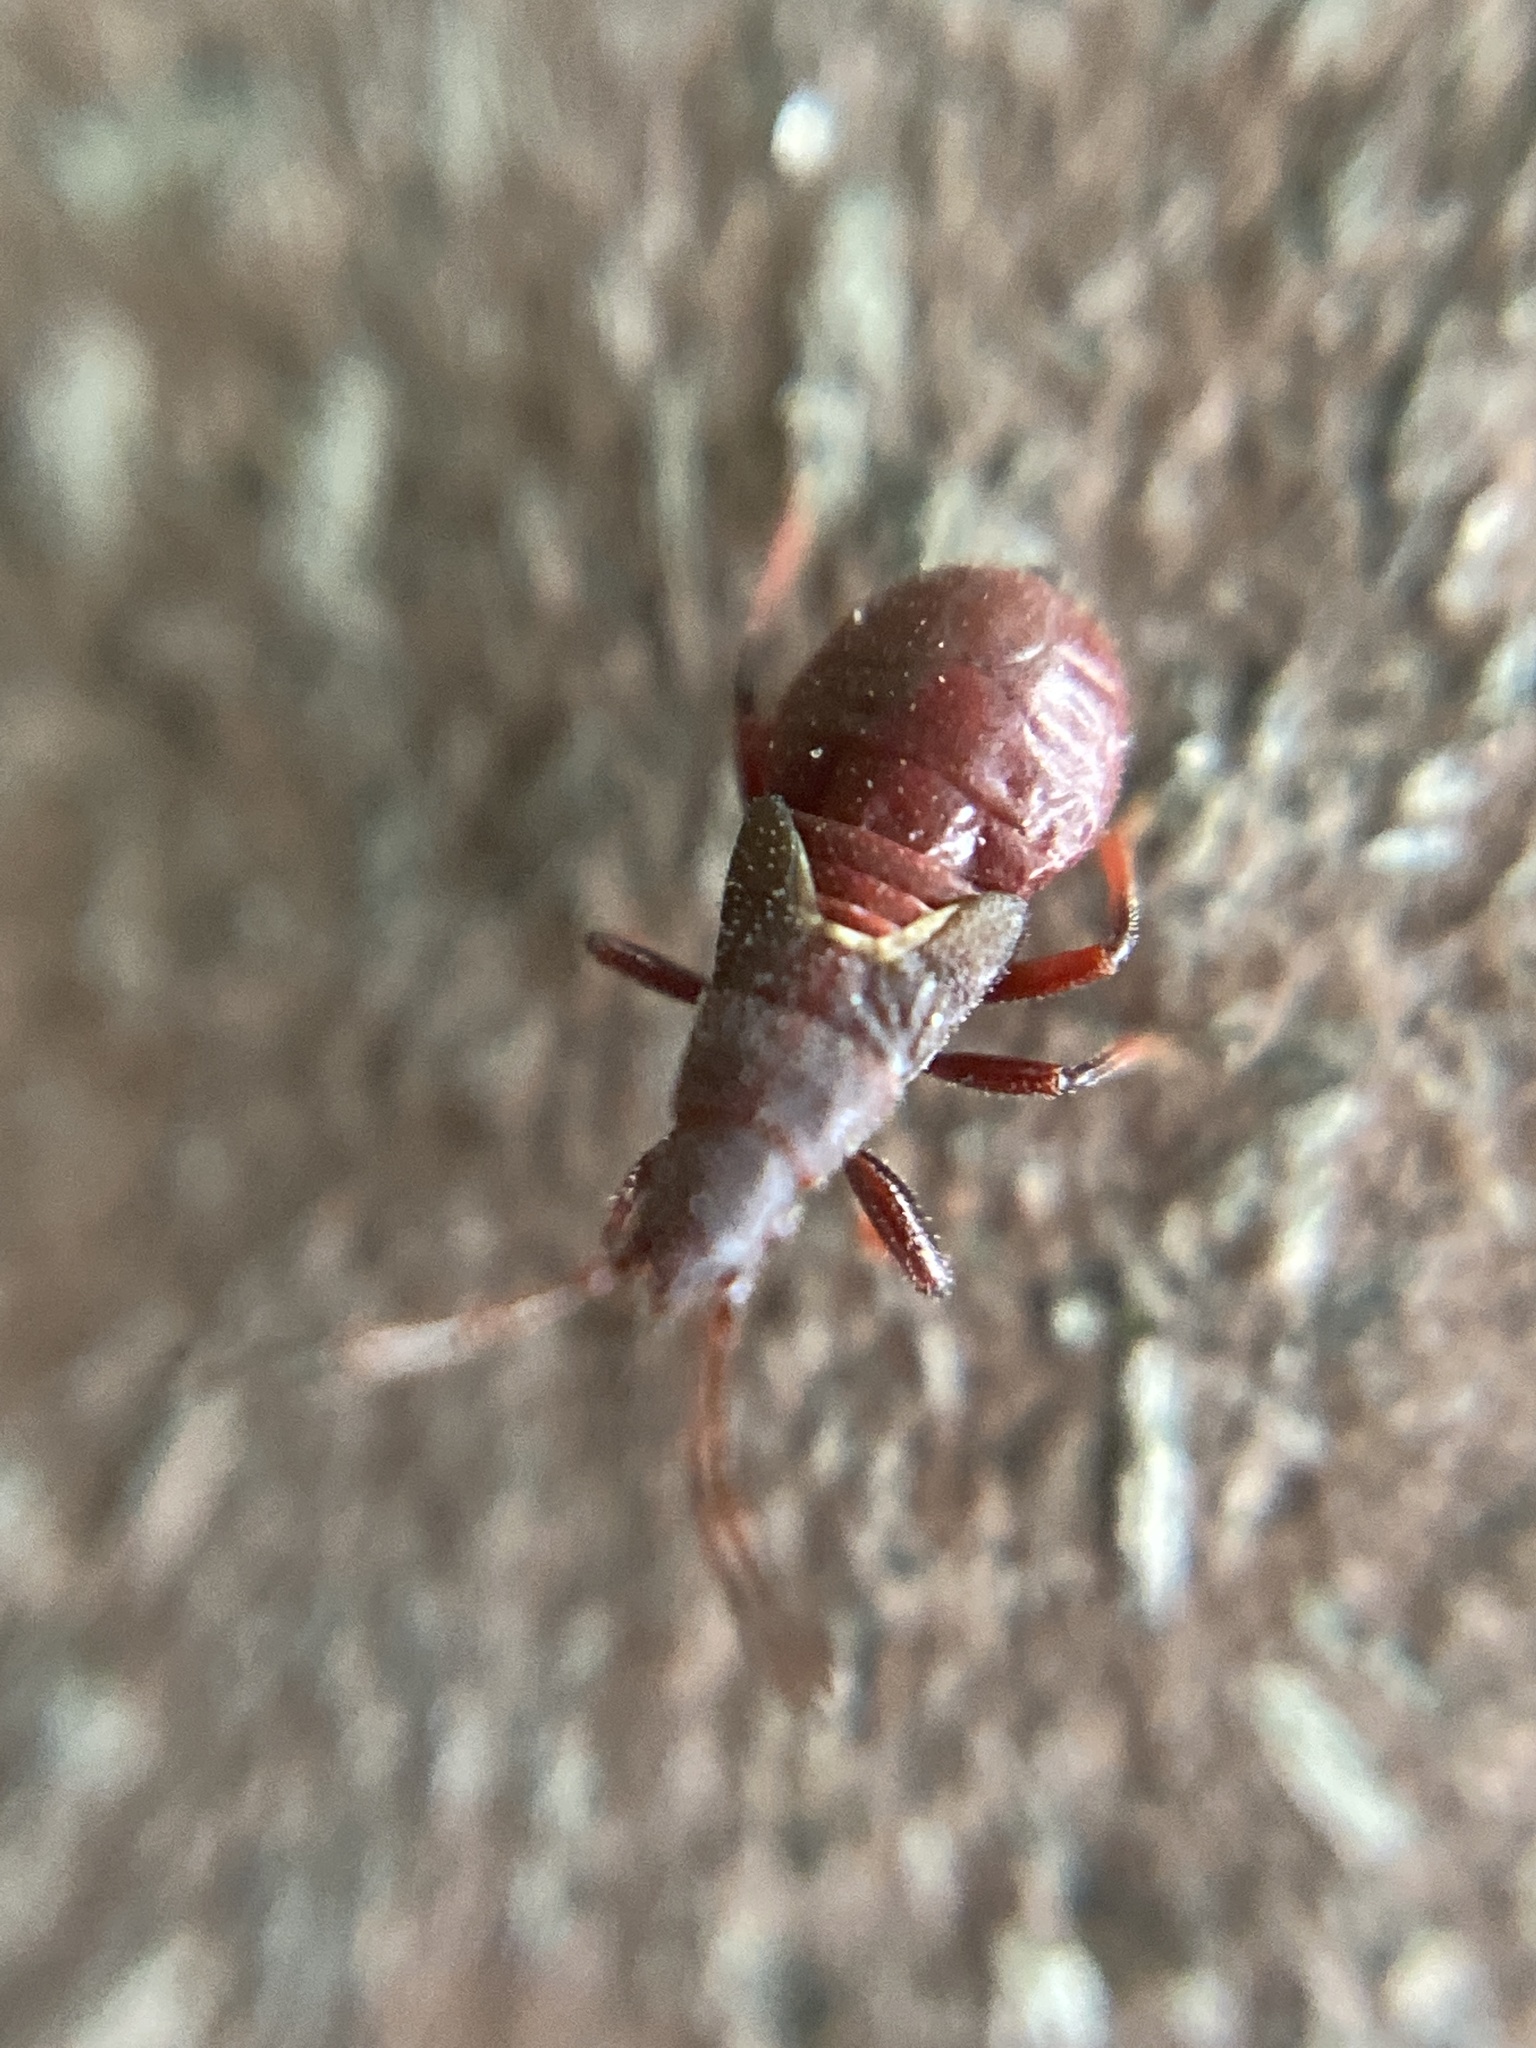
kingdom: Animalia
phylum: Arthropoda
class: Insecta
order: Hemiptera
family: Oxycarenidae
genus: Oxycarenus
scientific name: Oxycarenus lavaterae
